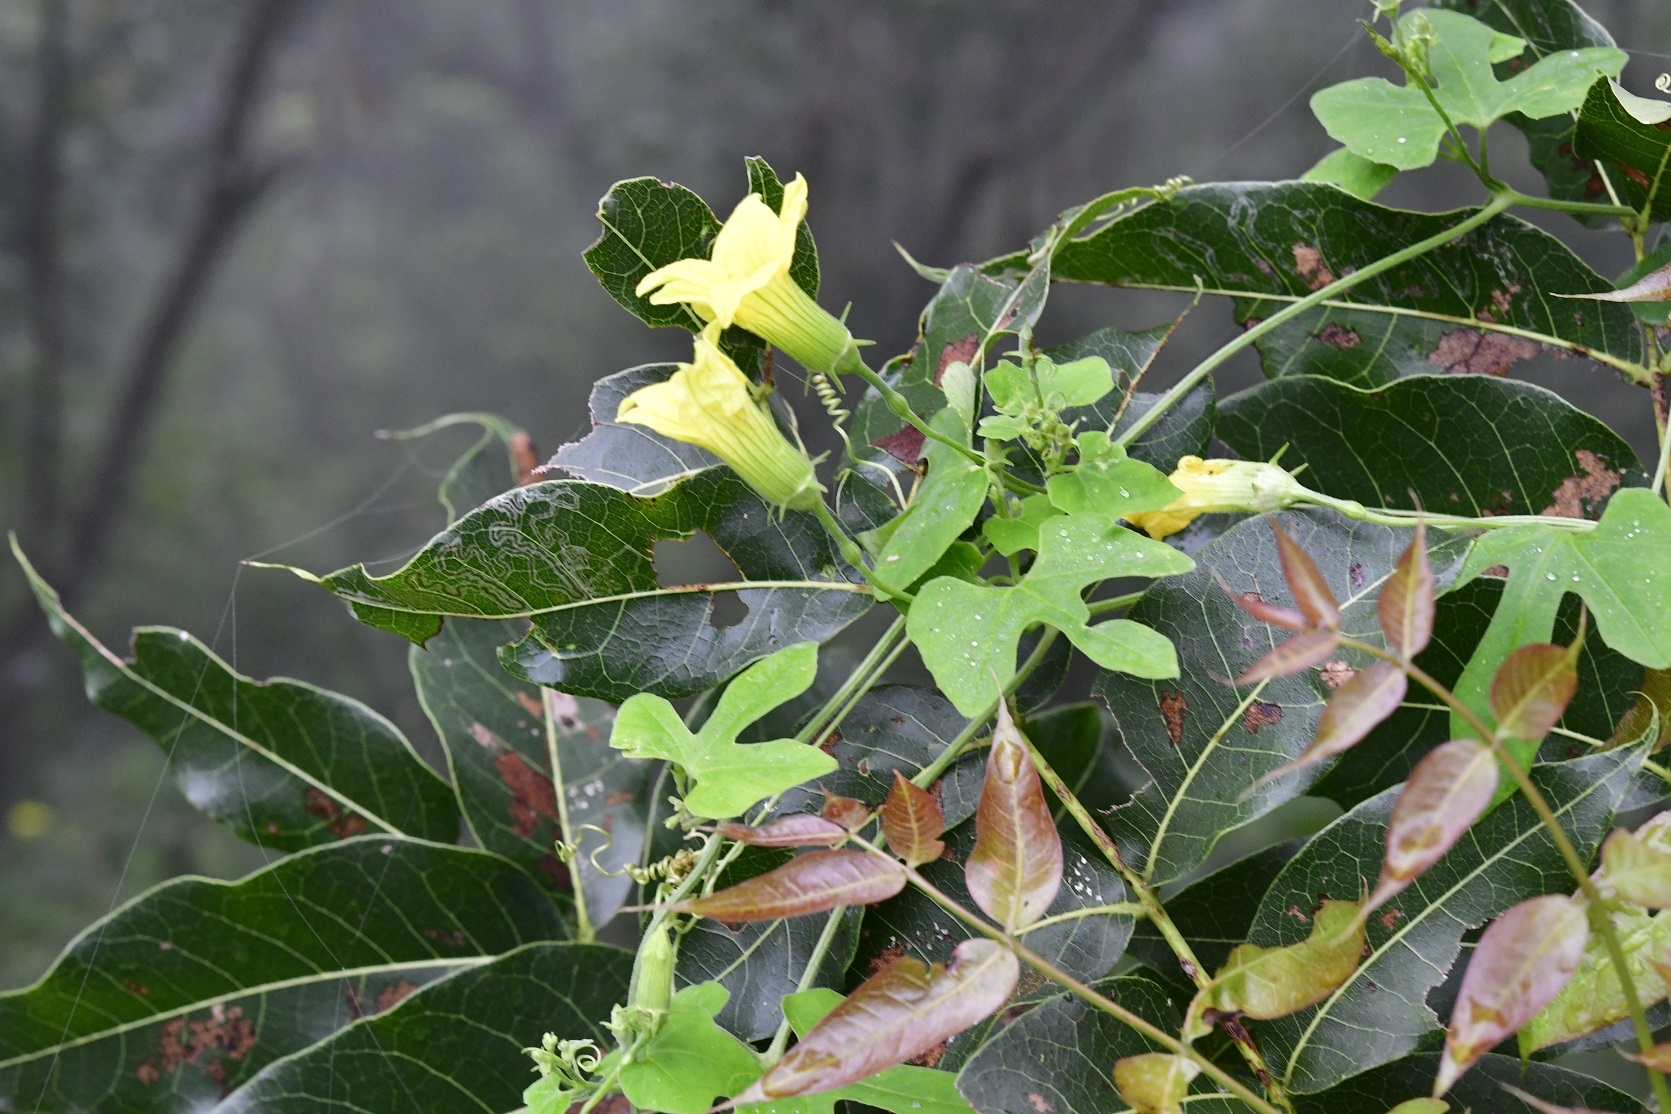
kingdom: Plantae
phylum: Tracheophyta
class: Magnoliopsida
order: Cucurbitales
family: Cucurbitaceae
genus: Schizocarpum
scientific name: Schizocarpum longisepalum
